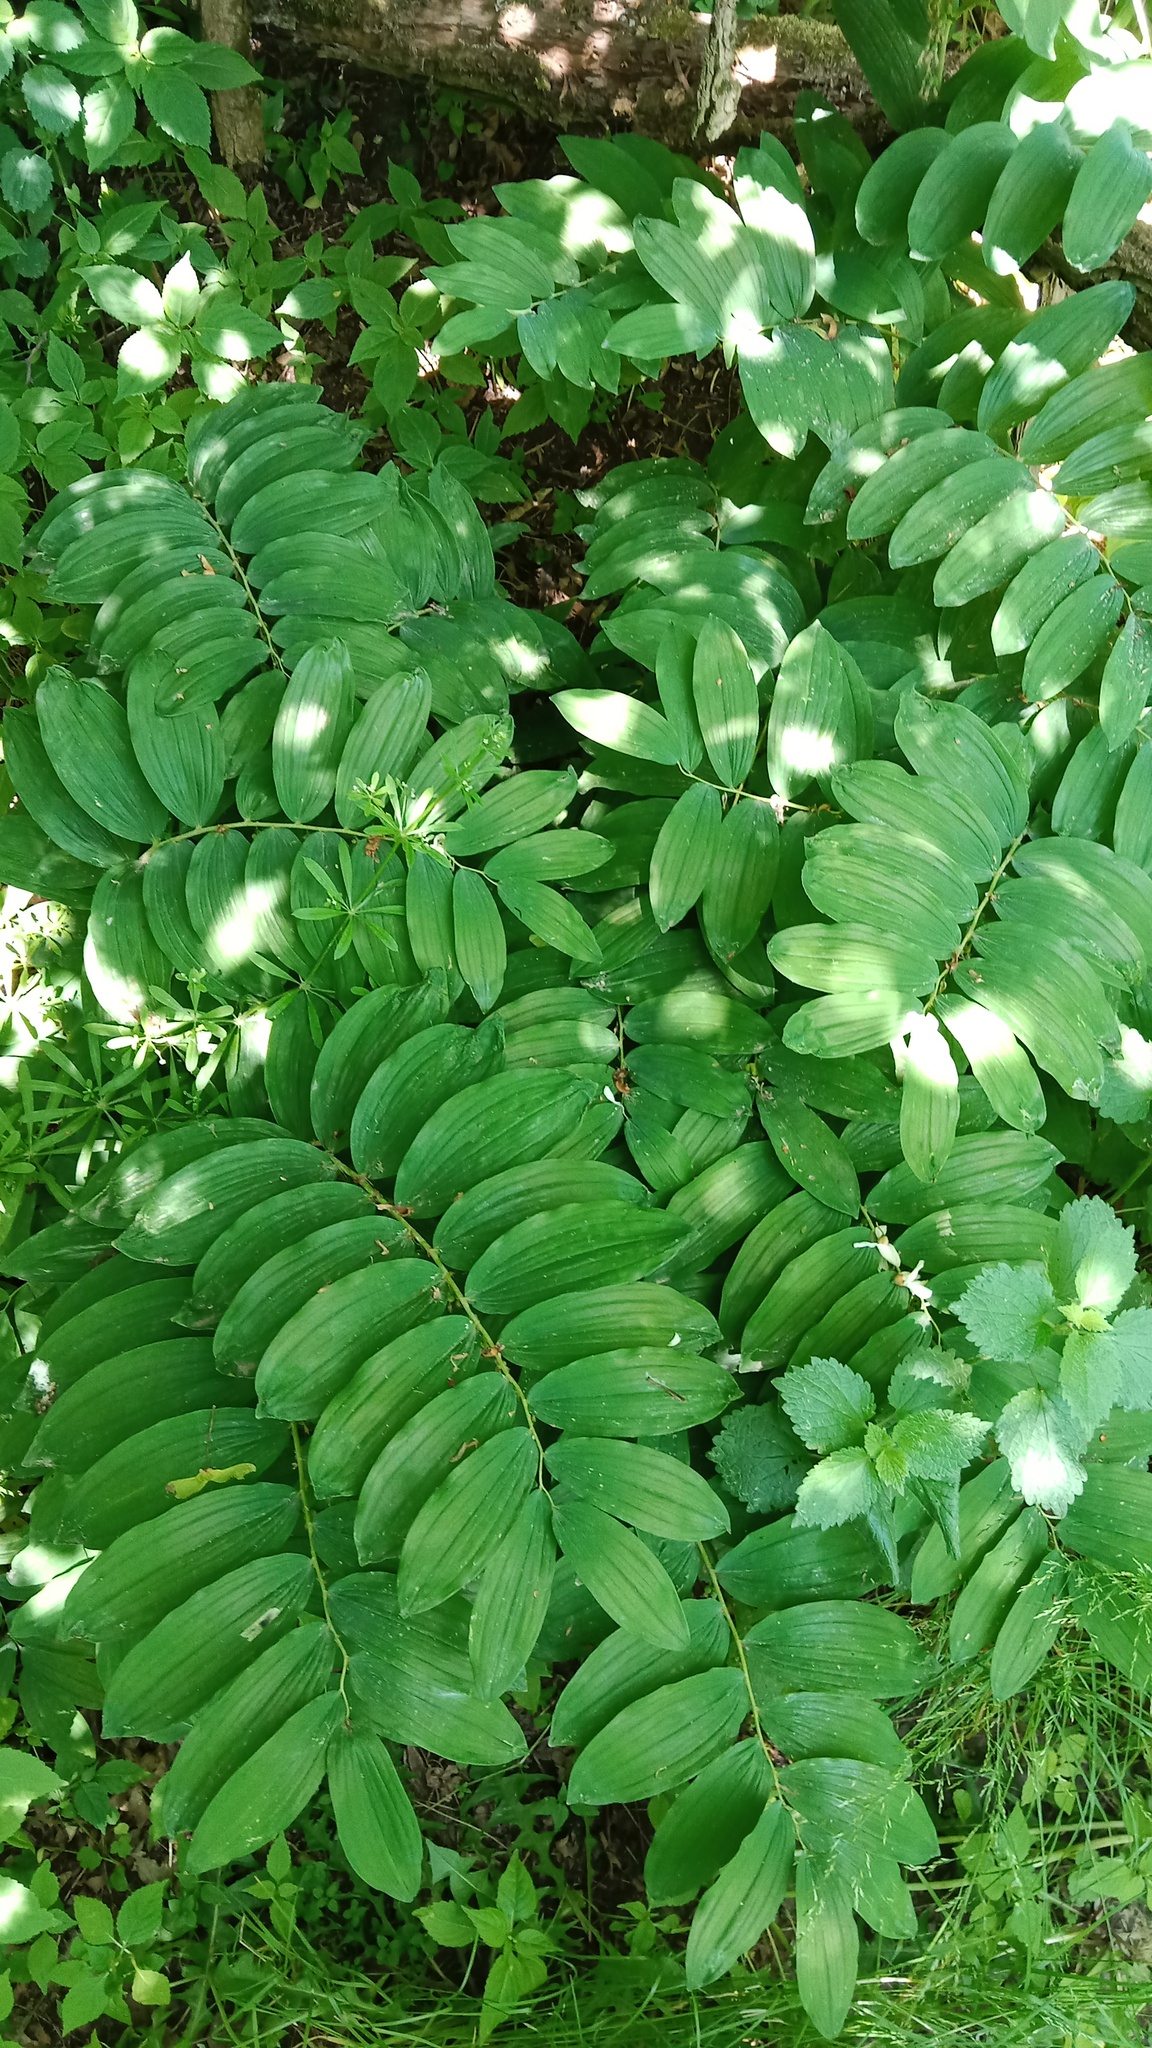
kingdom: Plantae
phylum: Tracheophyta
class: Liliopsida
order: Asparagales
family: Asparagaceae
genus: Polygonatum
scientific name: Polygonatum multiflorum
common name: Solomon's-seal
